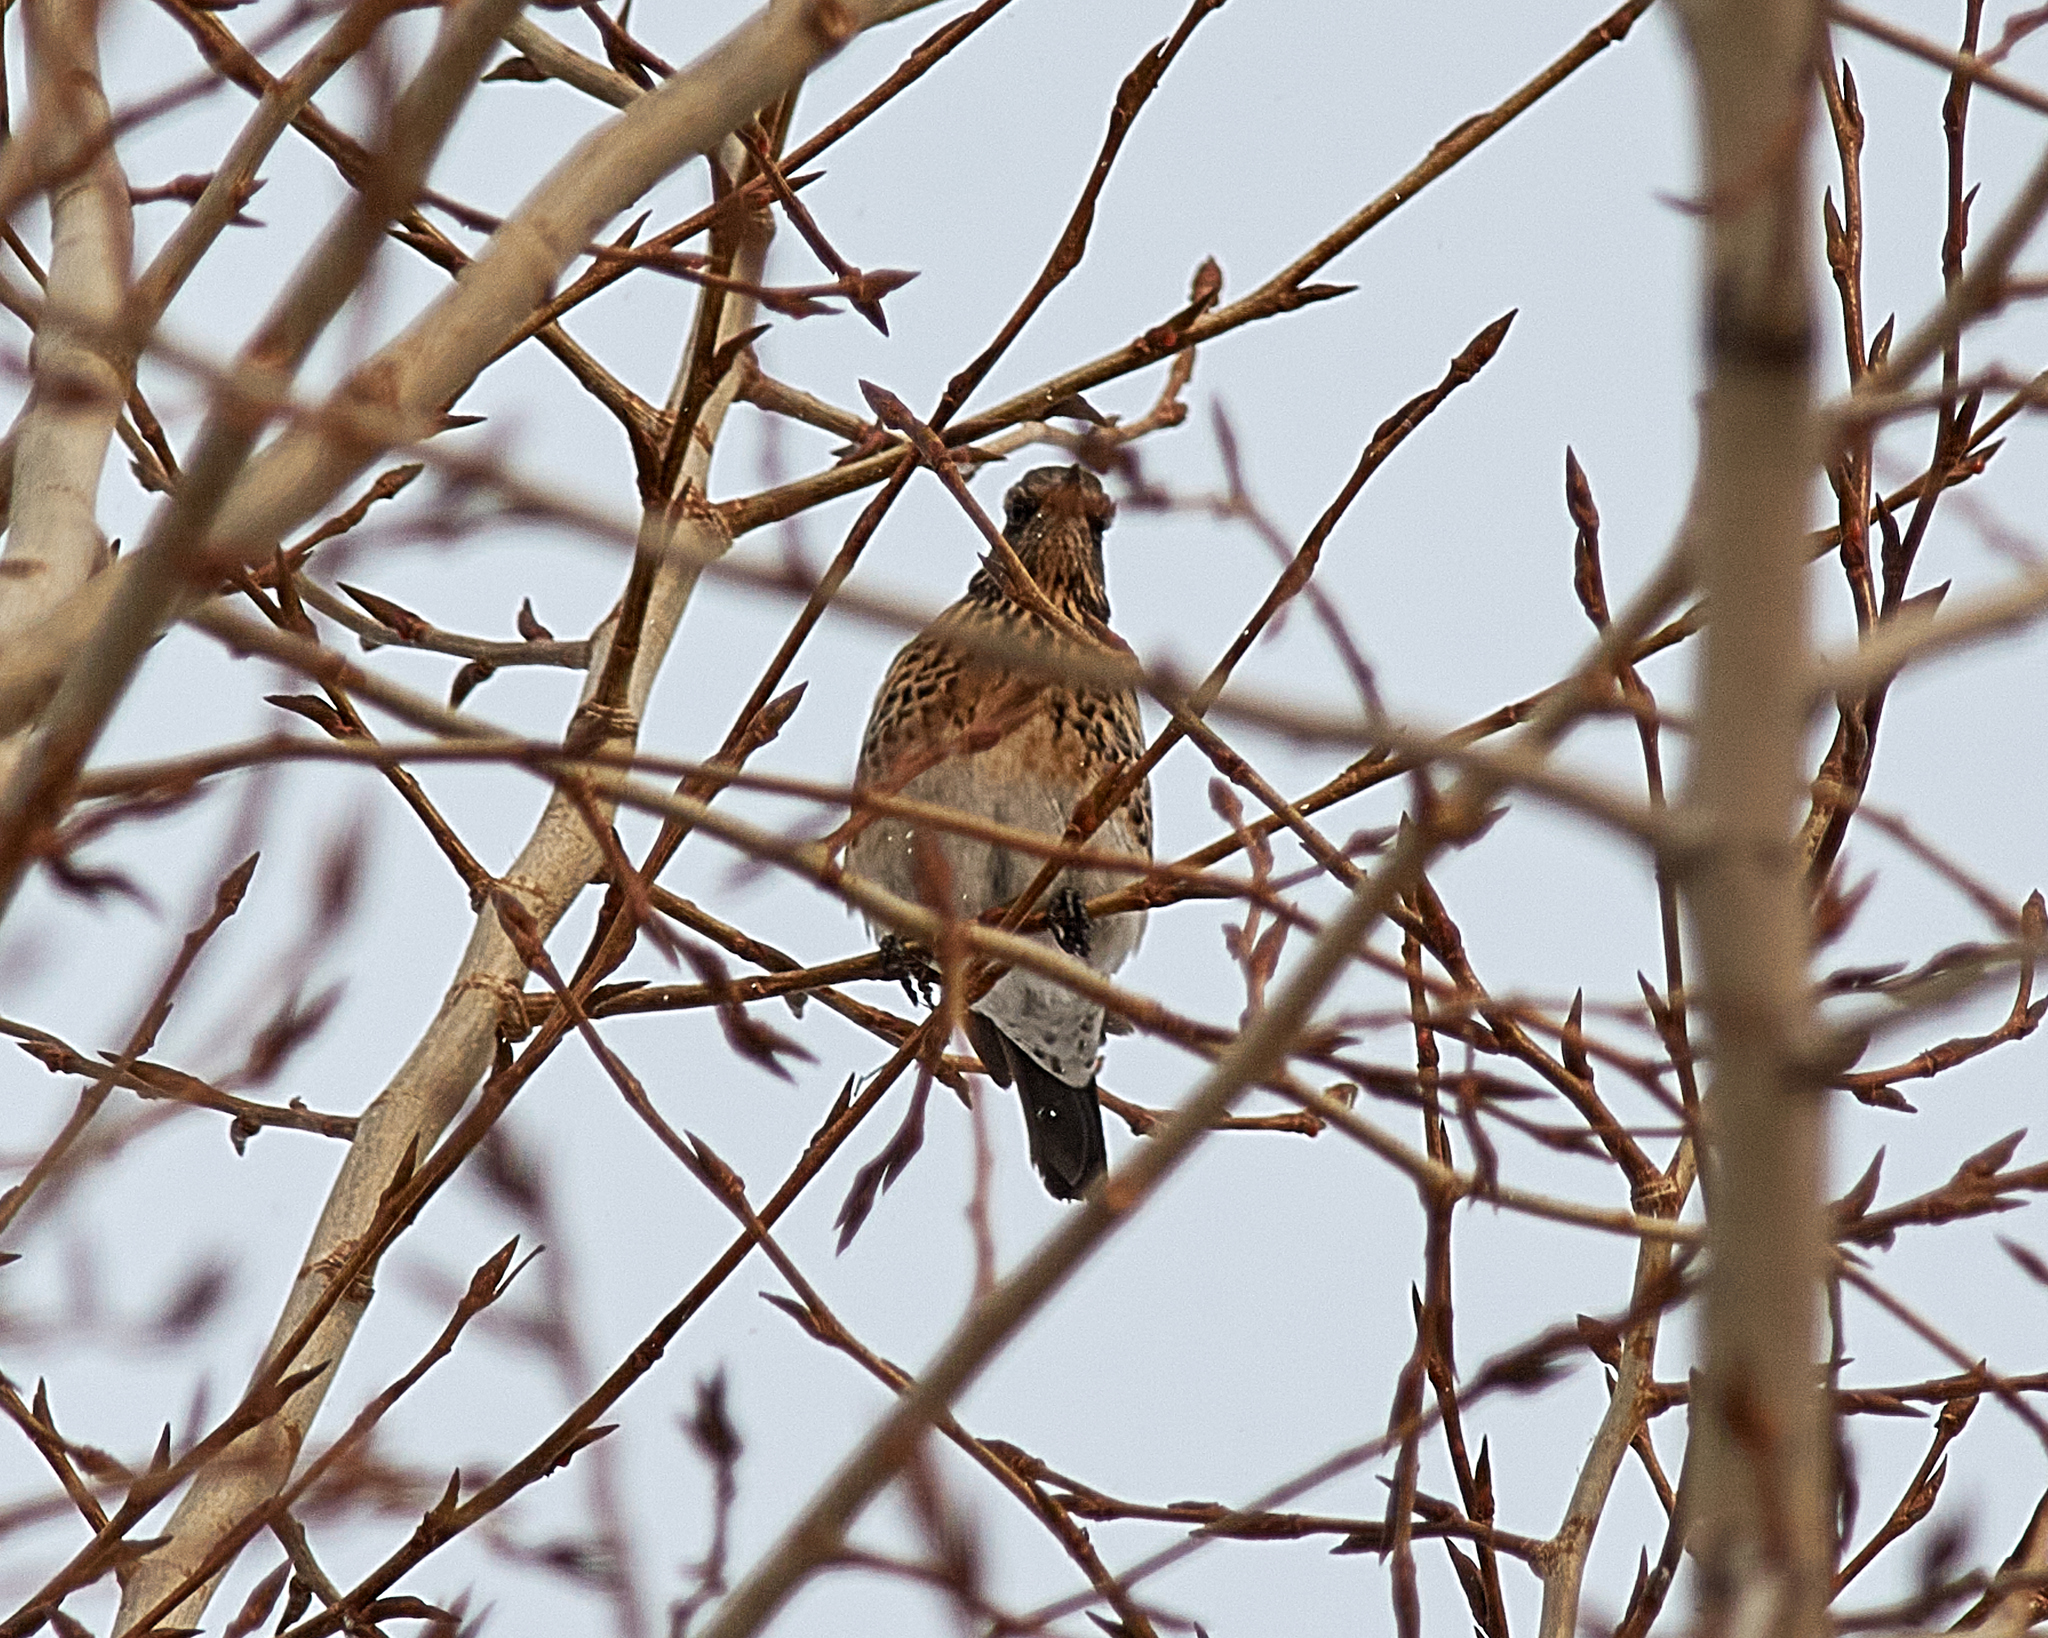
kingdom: Animalia
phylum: Chordata
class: Aves
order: Passeriformes
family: Turdidae
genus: Turdus
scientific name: Turdus pilaris
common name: Fieldfare
